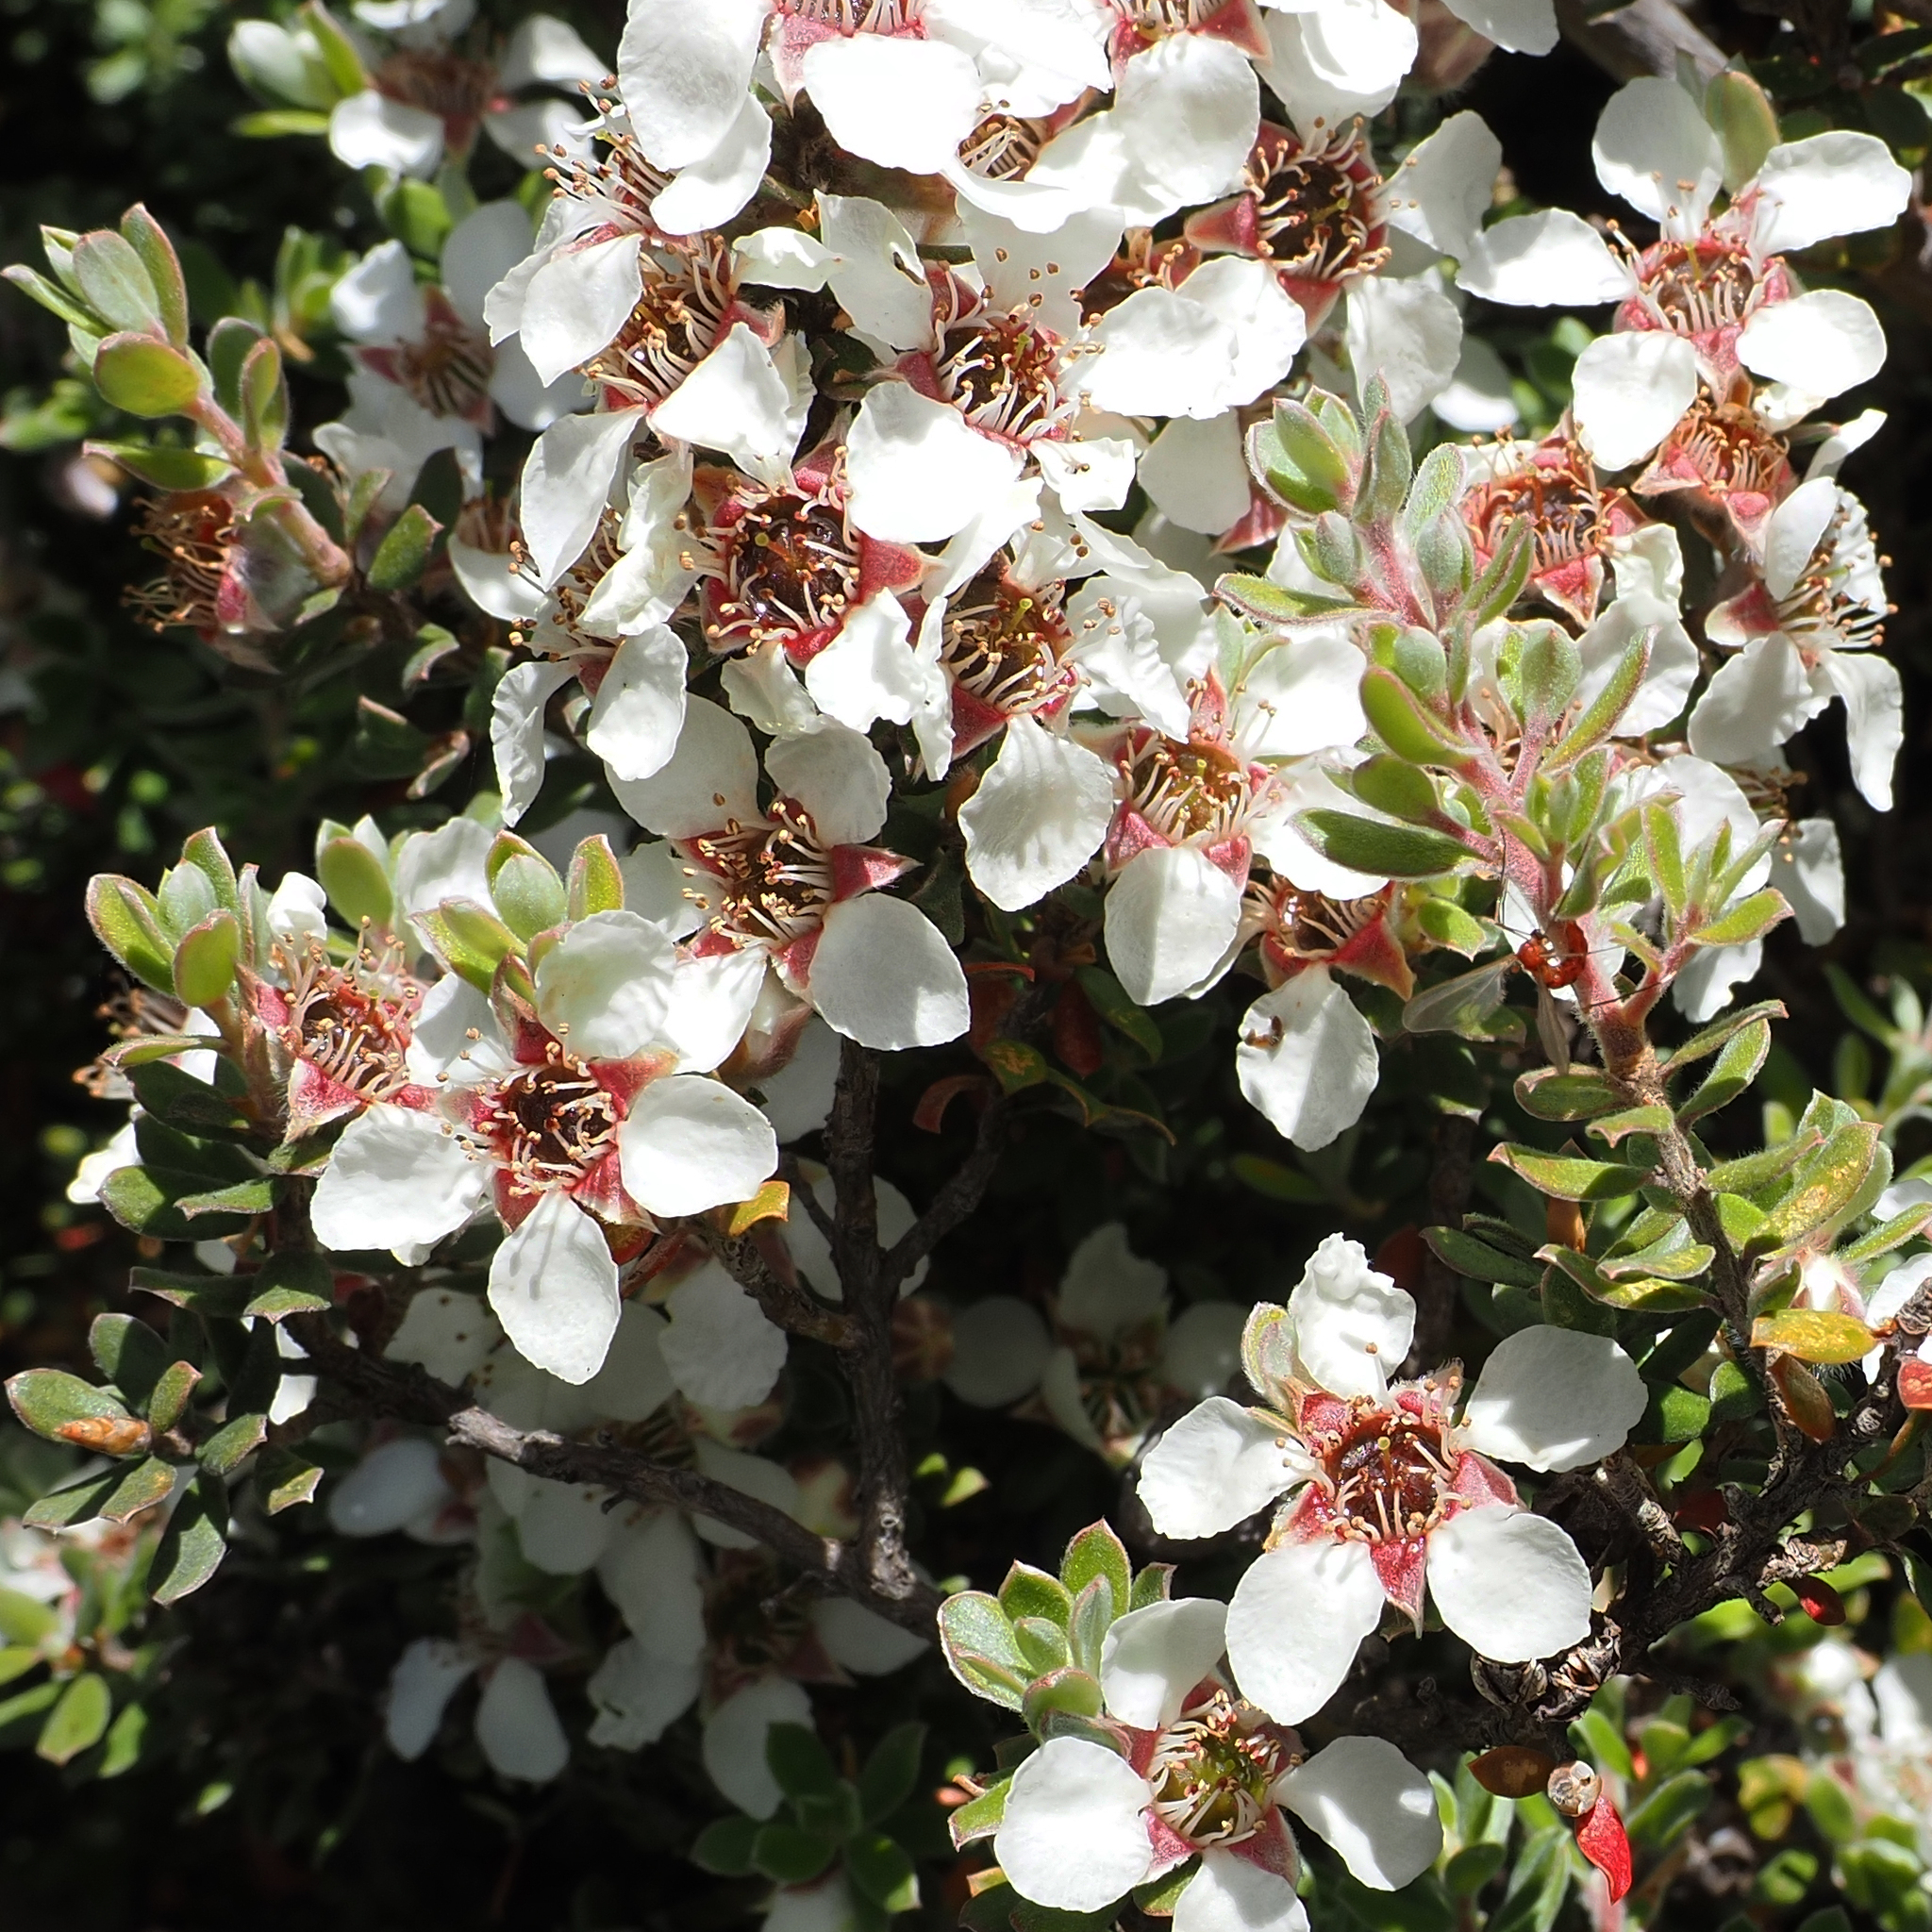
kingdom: Plantae
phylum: Tracheophyta
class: Magnoliopsida
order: Myrtales
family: Myrtaceae
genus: Leptospermum
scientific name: Leptospermum lanigerum
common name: Woolly tea-tree
